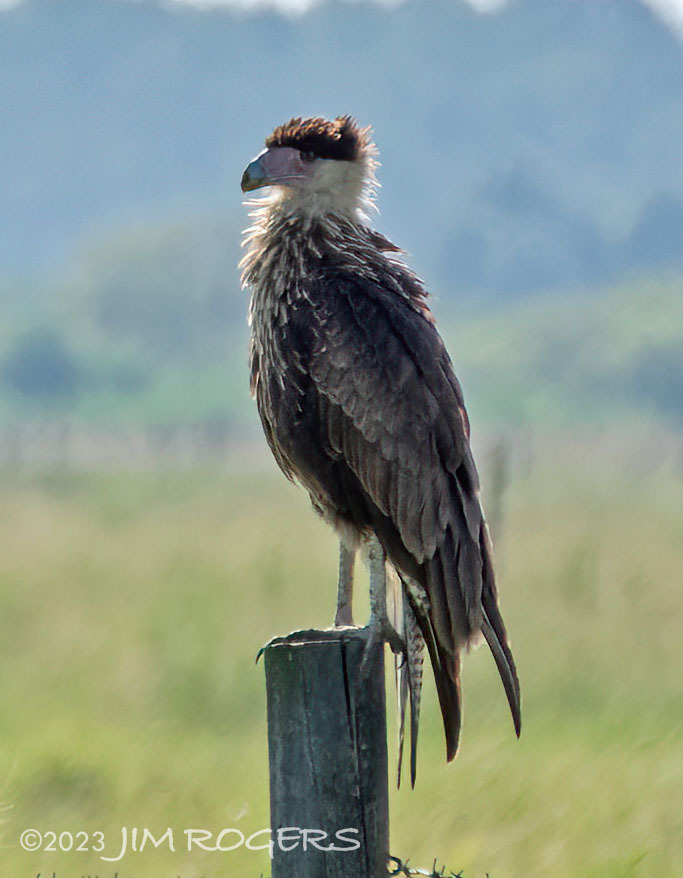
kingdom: Animalia
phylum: Chordata
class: Aves
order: Falconiformes
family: Falconidae
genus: Caracara
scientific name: Caracara plancus
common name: Southern caracara
